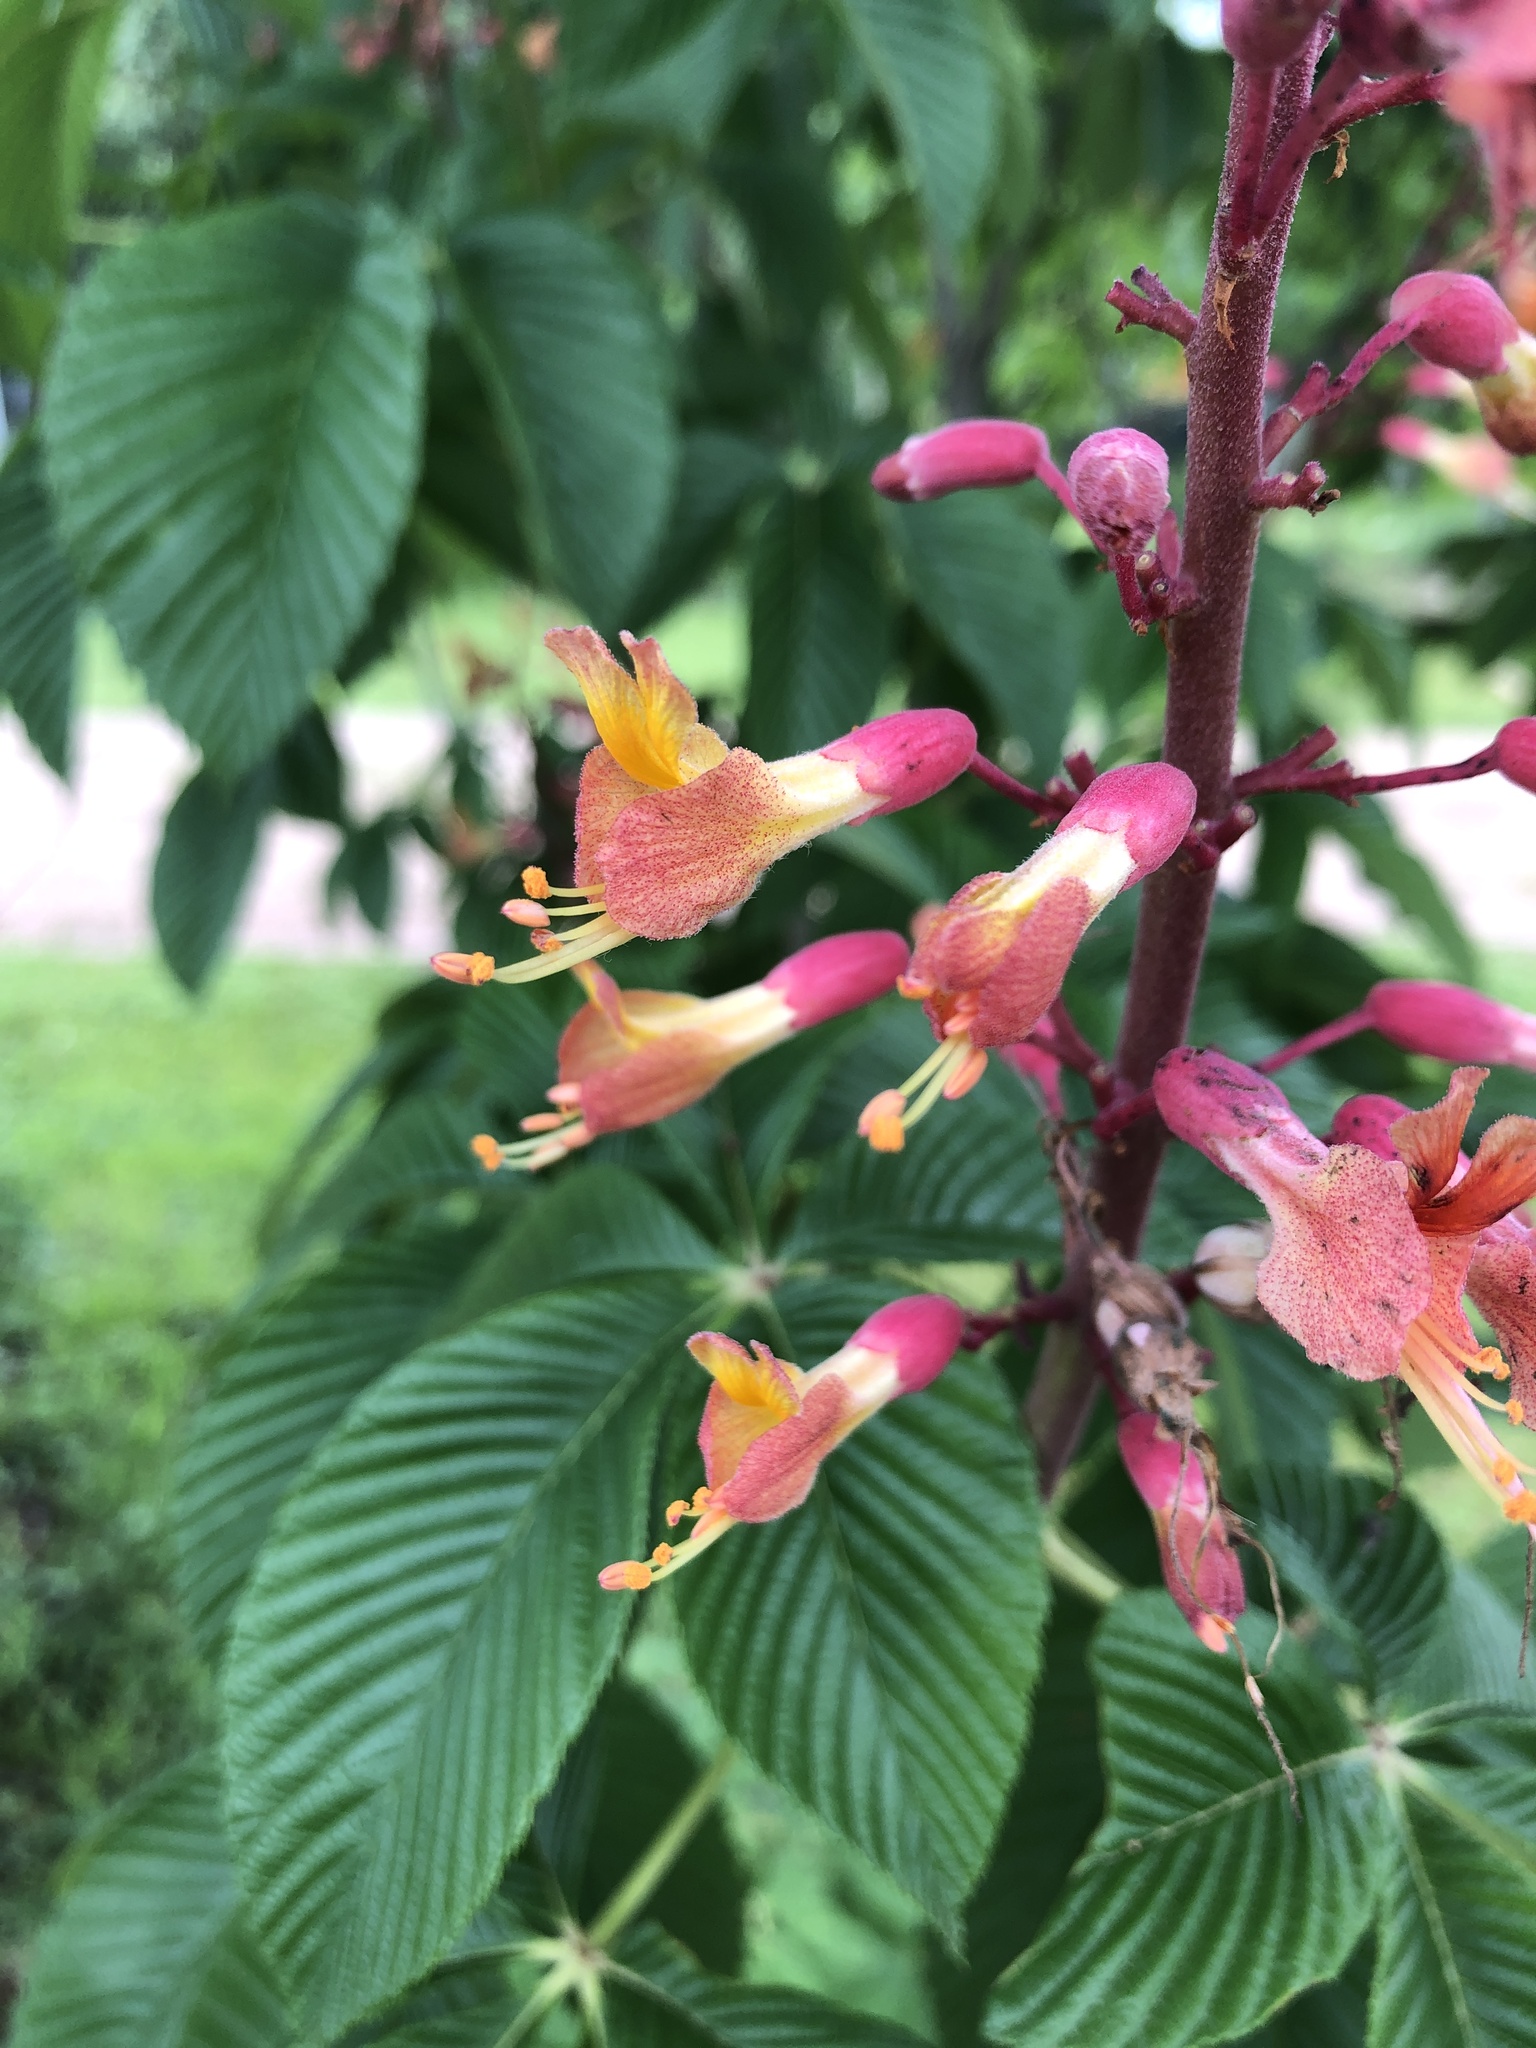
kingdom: Plantae
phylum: Tracheophyta
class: Magnoliopsida
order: Sapindales
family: Sapindaceae
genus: Aesculus
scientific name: Aesculus pavia
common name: Red buckeye
